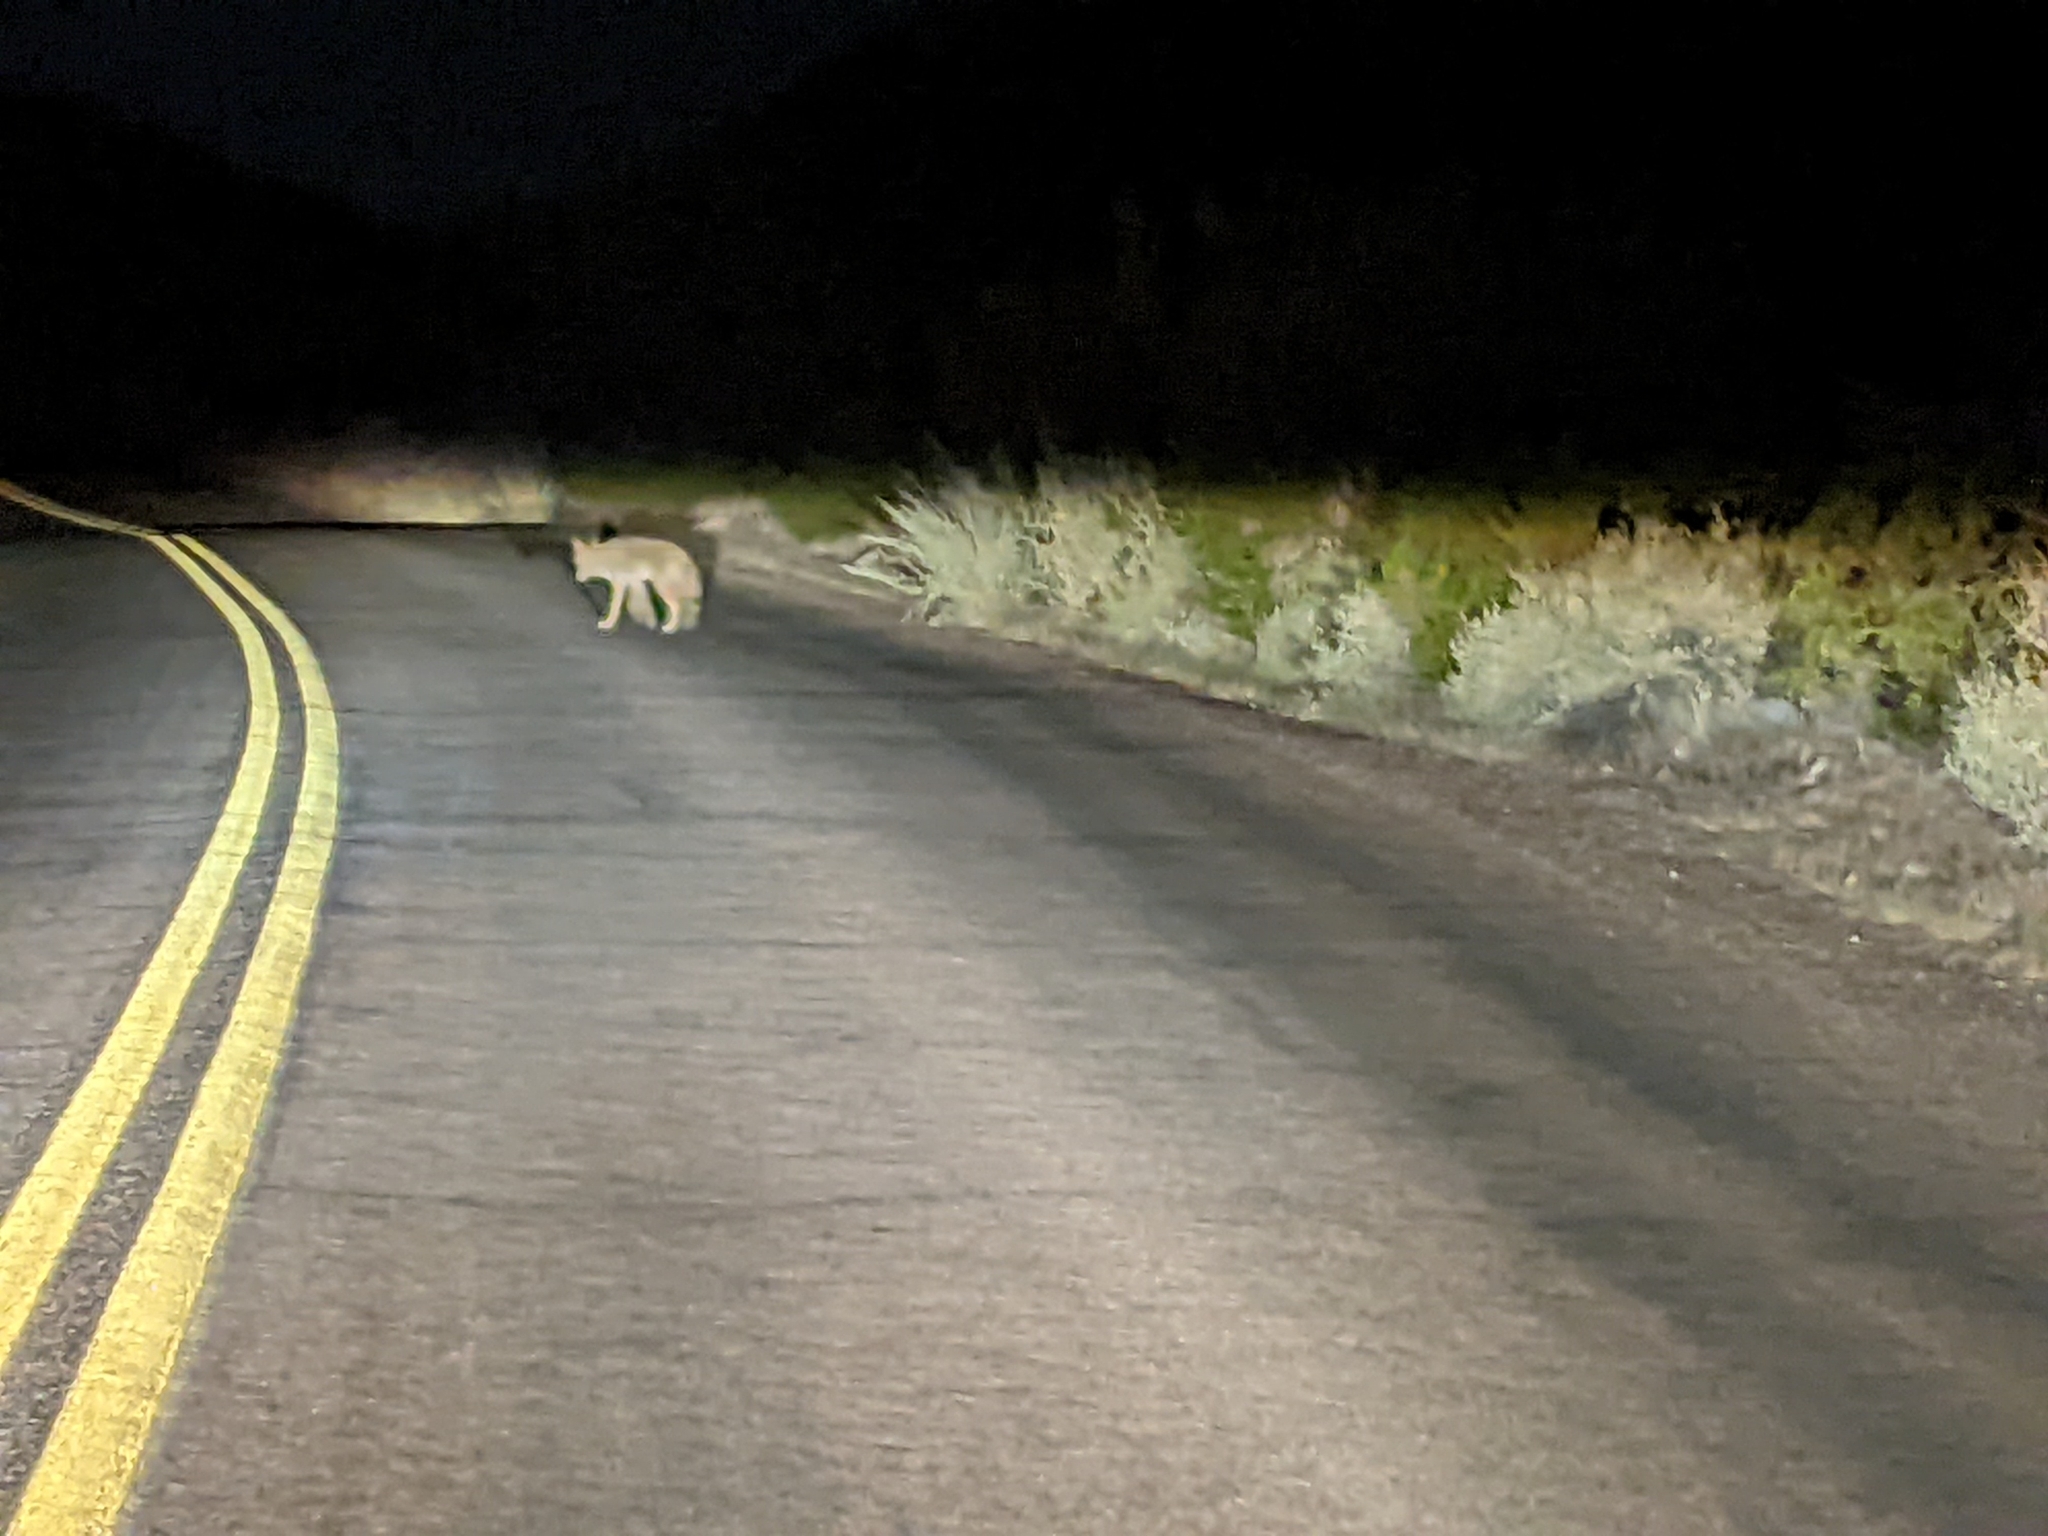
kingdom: Animalia
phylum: Chordata
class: Mammalia
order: Carnivora
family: Canidae
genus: Canis
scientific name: Canis latrans
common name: Coyote
